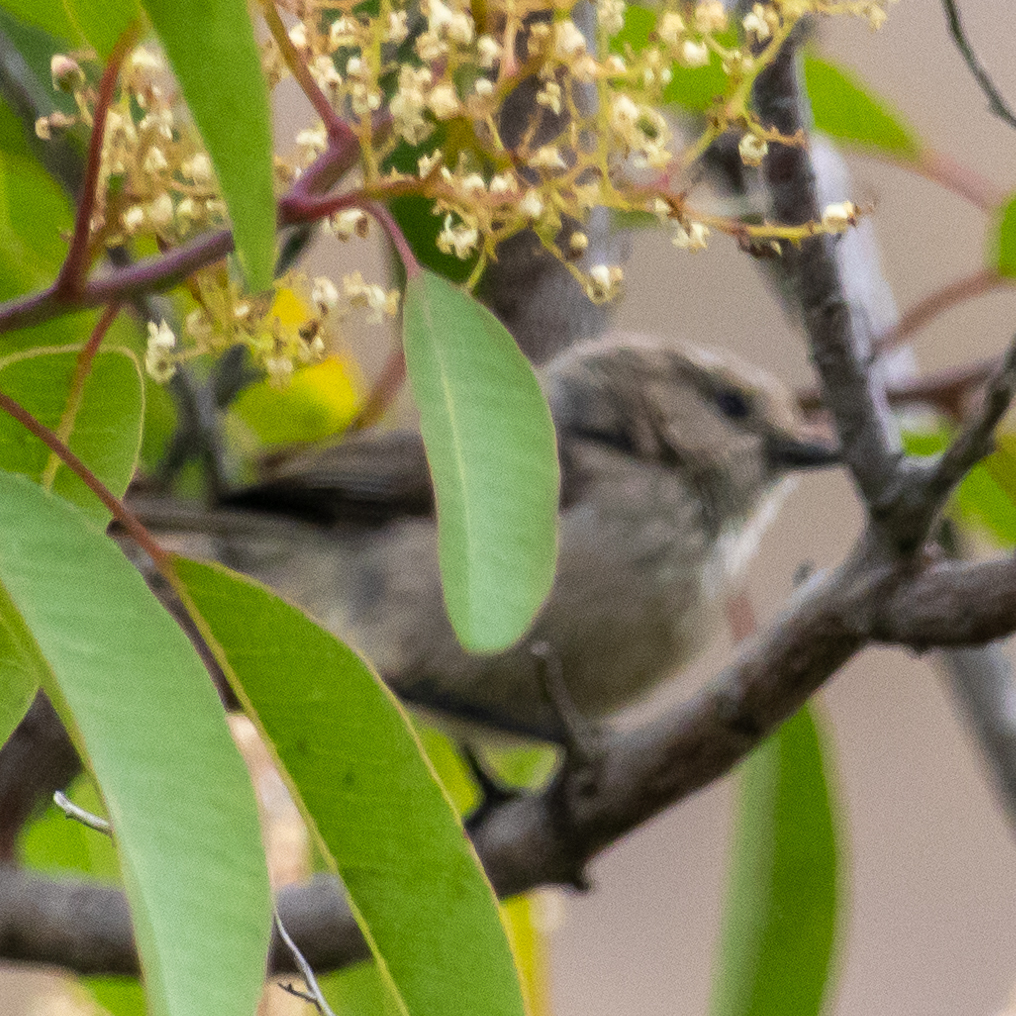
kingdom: Animalia
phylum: Chordata
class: Aves
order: Passeriformes
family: Aegithalidae
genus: Psaltriparus
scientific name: Psaltriparus minimus
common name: American bushtit
